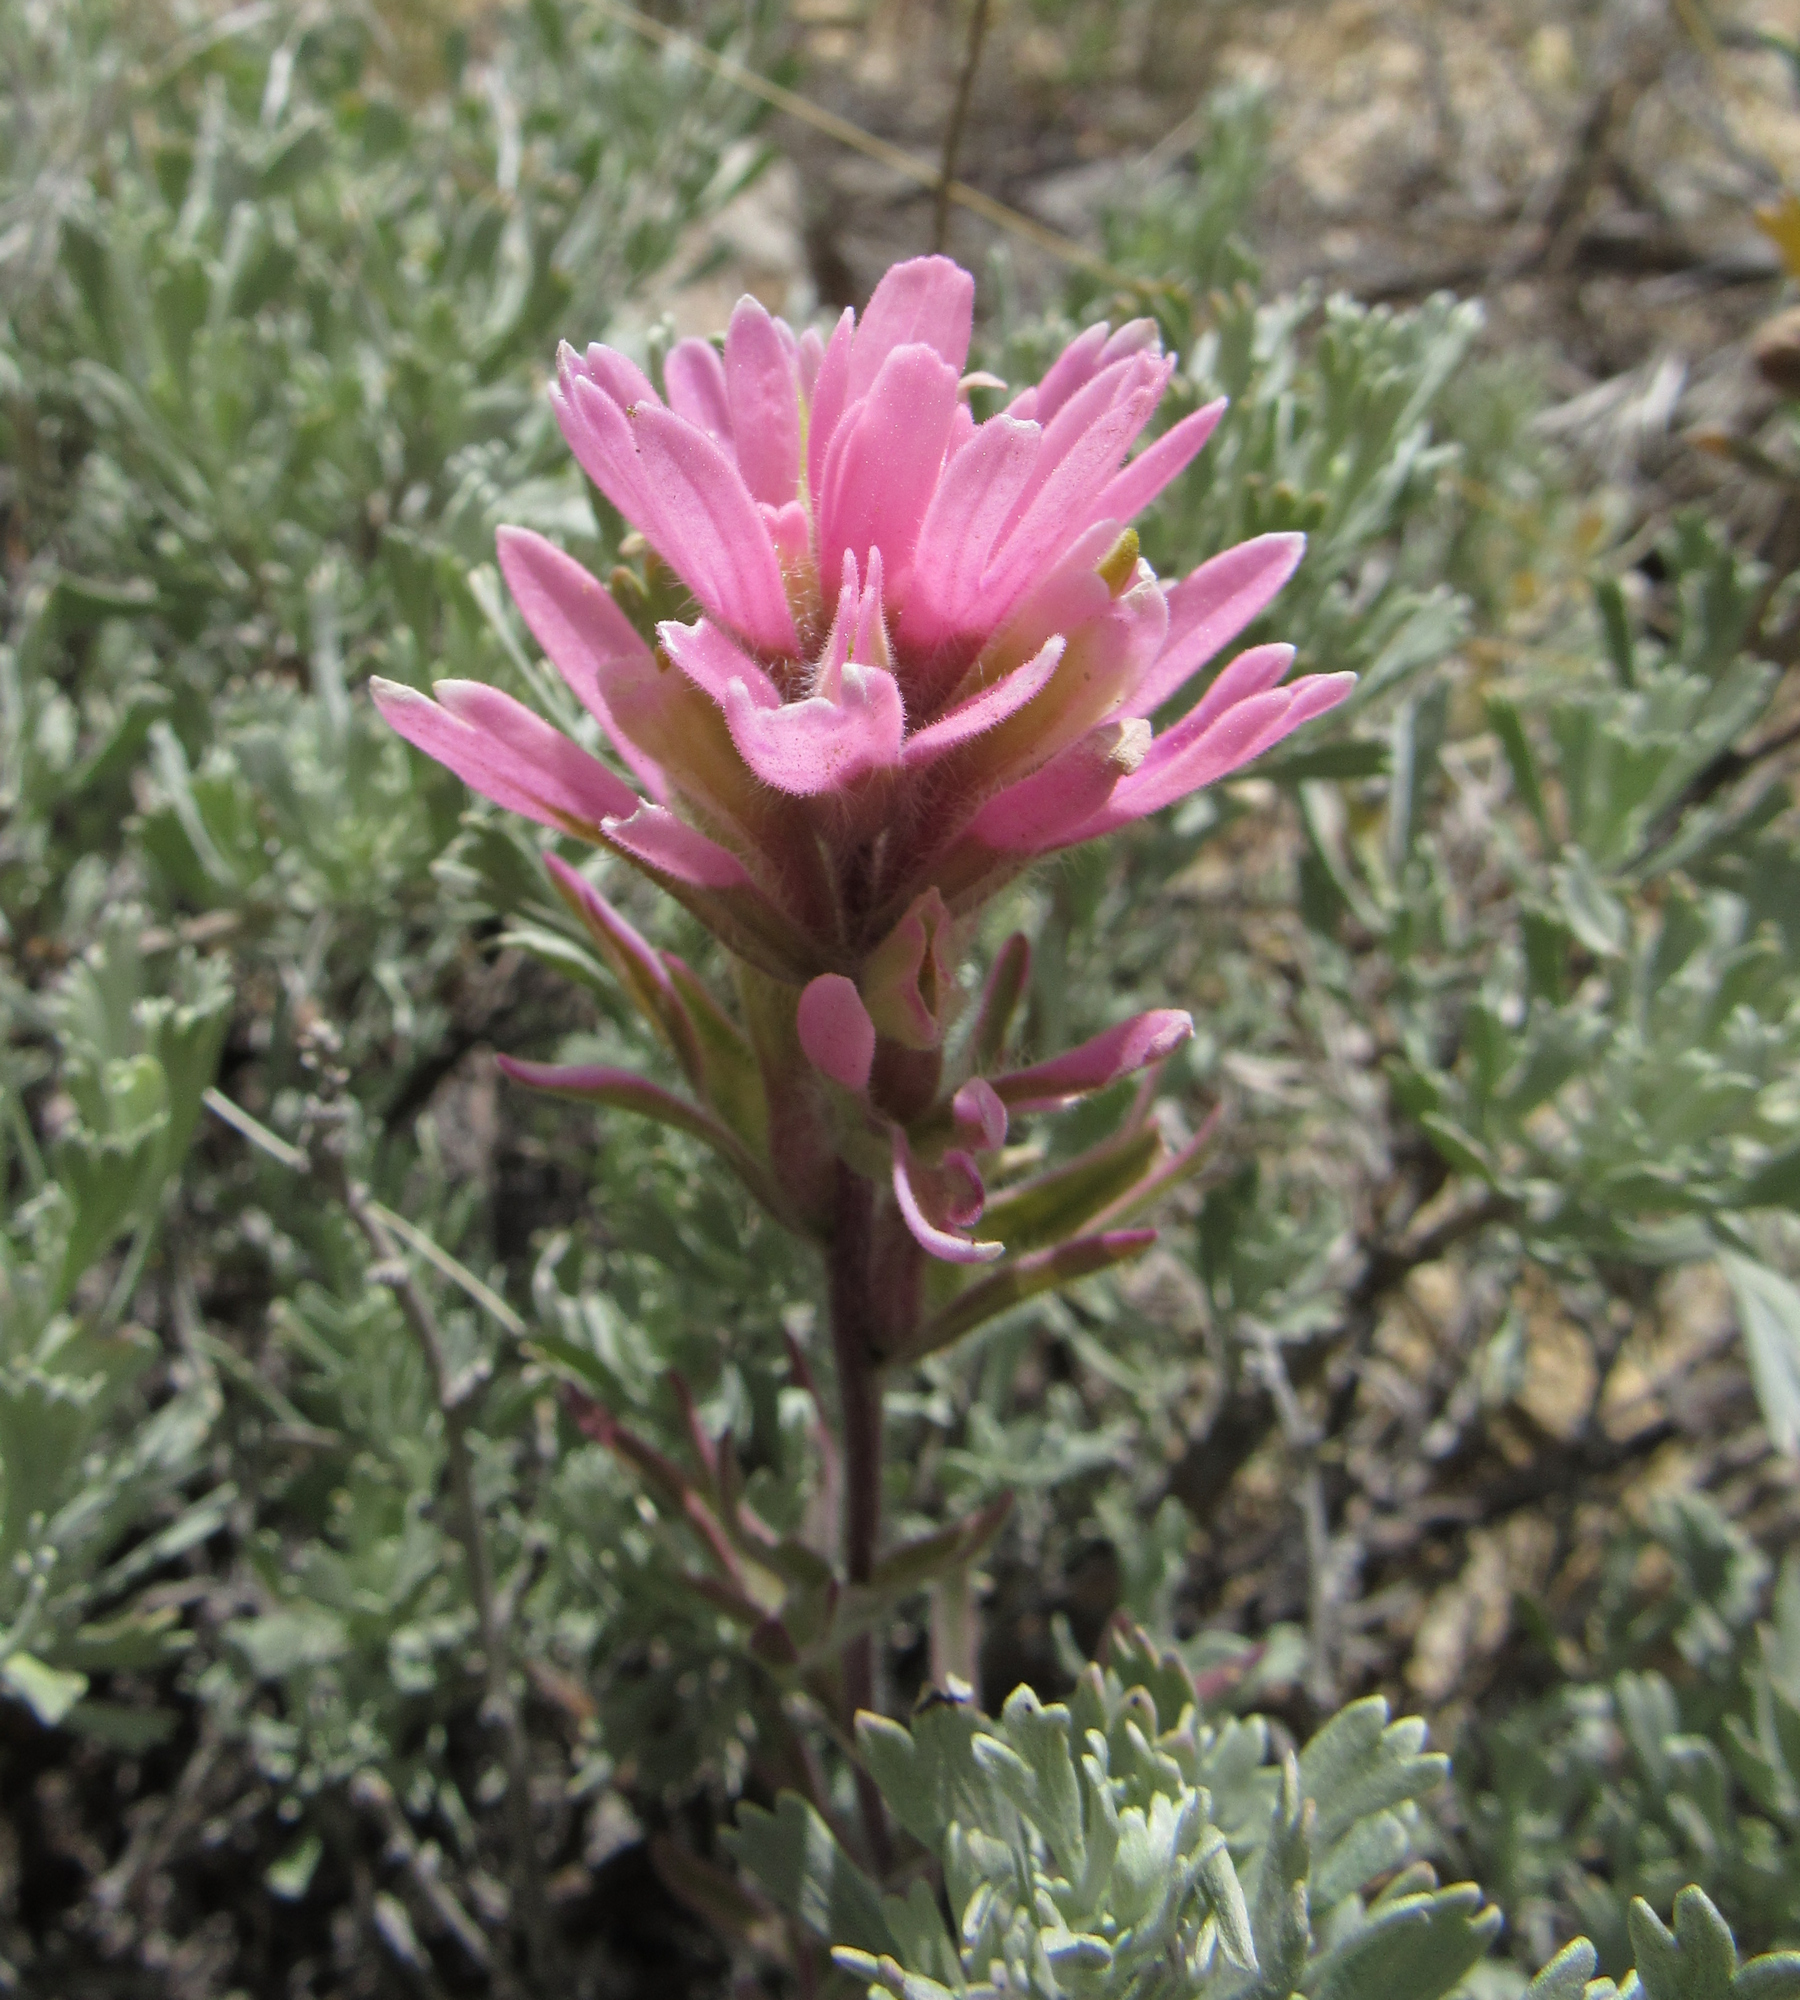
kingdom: Plantae
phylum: Tracheophyta
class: Magnoliopsida
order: Lamiales
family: Orobanchaceae
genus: Castilleja
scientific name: Castilleja angustifolia
